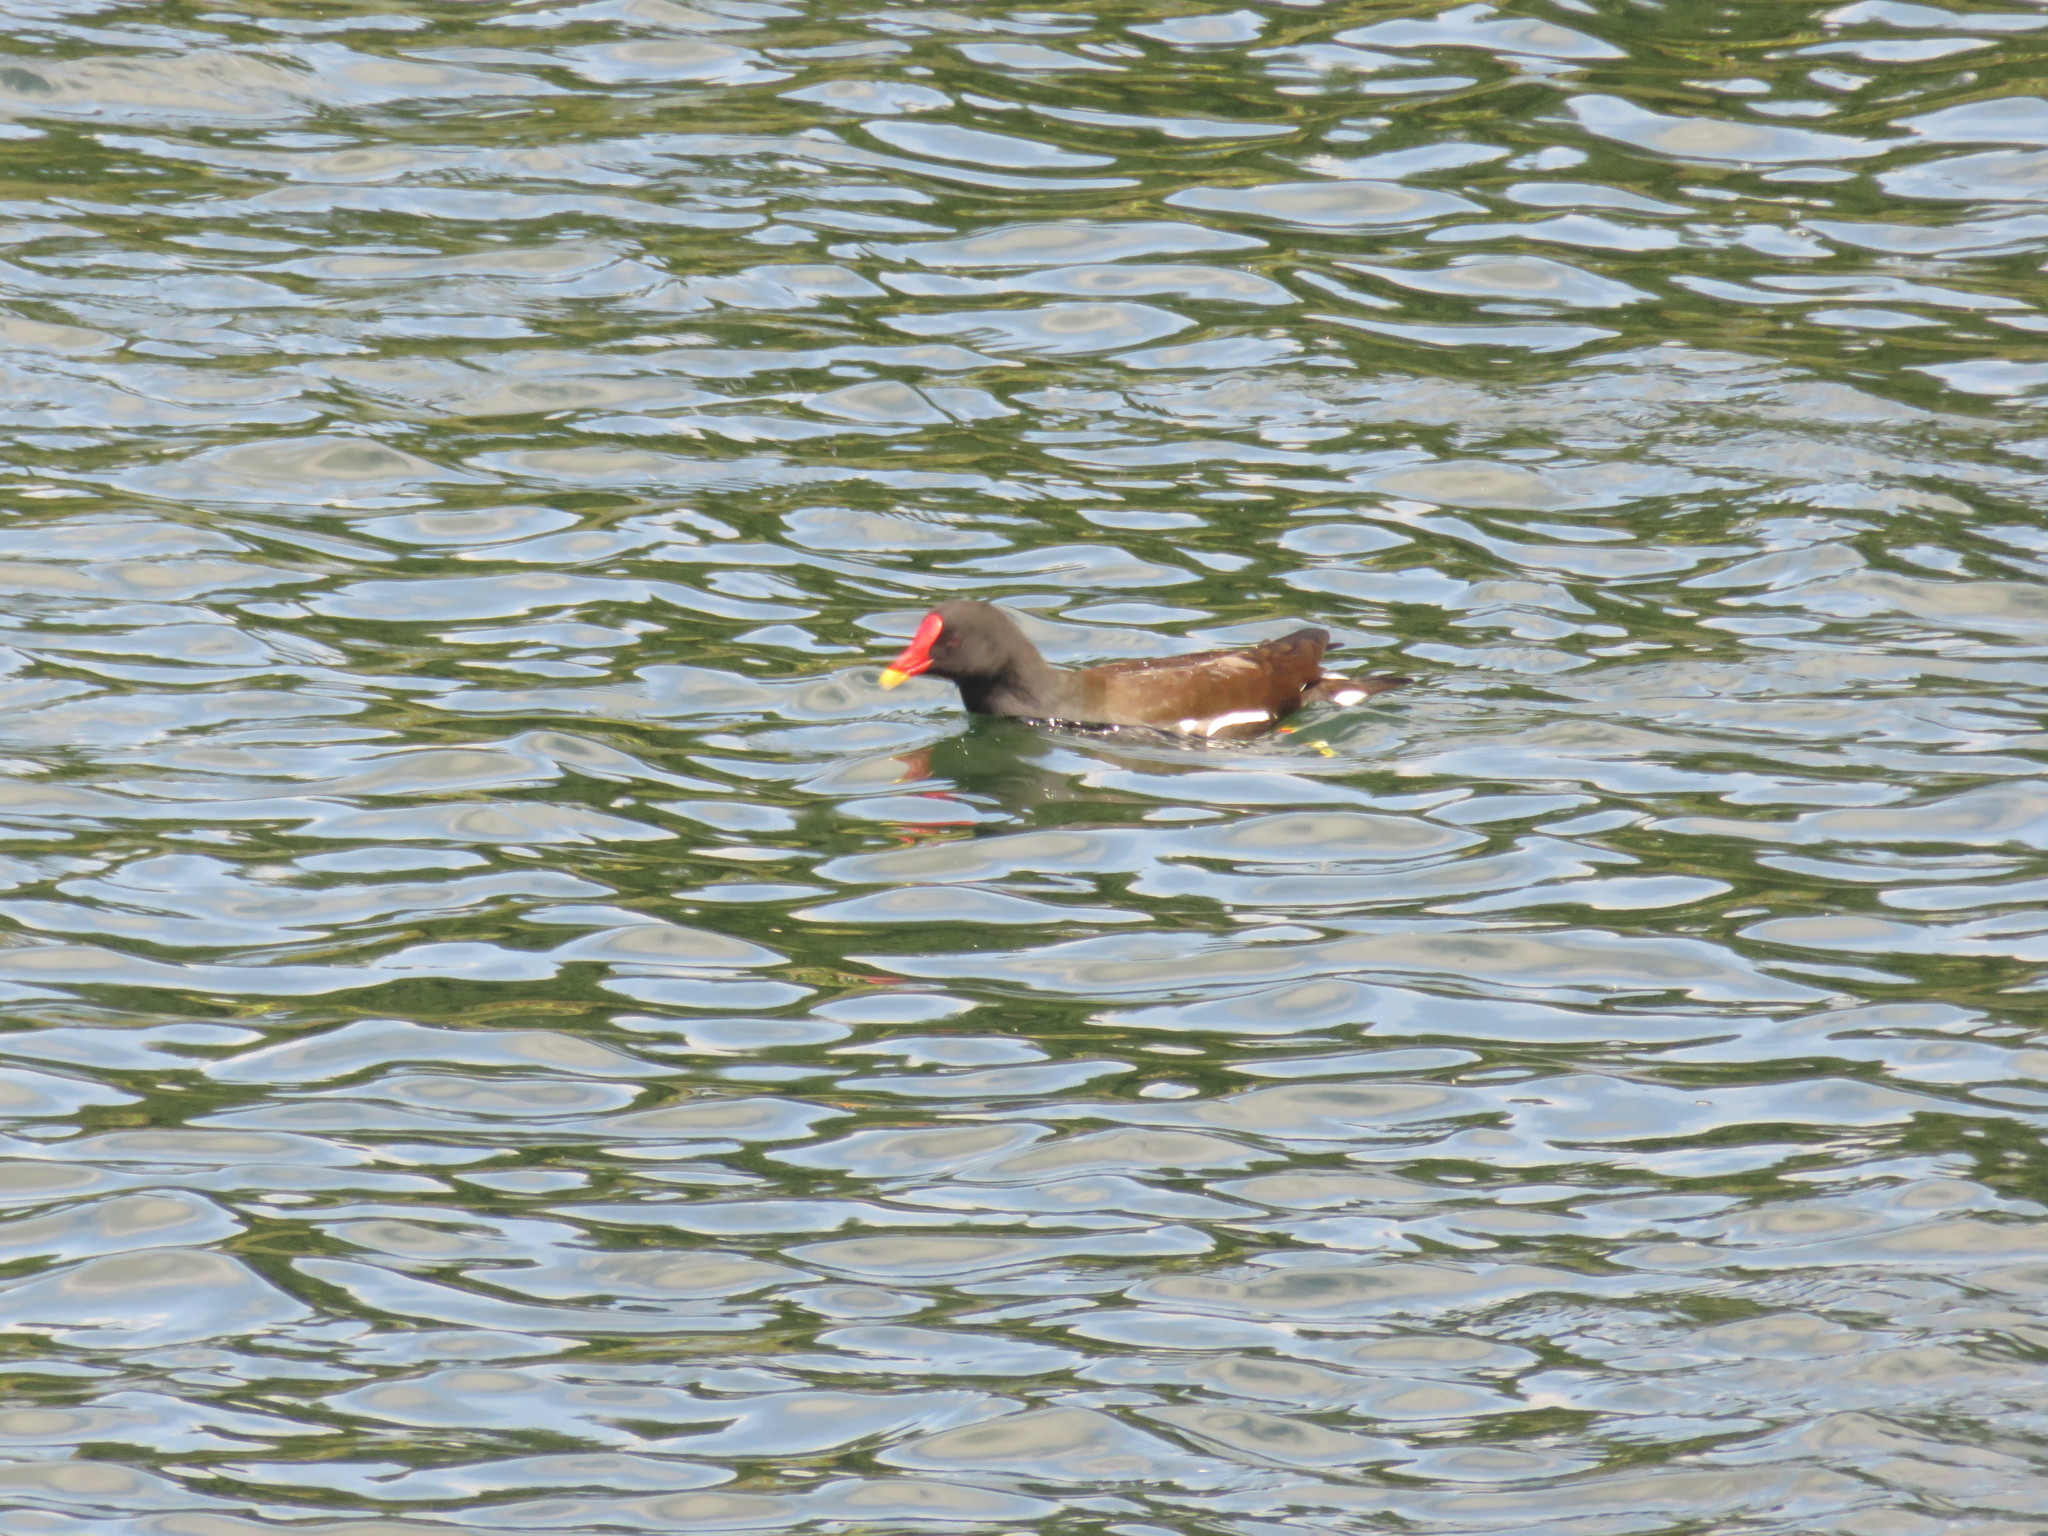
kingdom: Animalia
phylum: Chordata
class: Aves
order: Gruiformes
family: Rallidae
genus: Gallinula
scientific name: Gallinula chloropus
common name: Common moorhen
